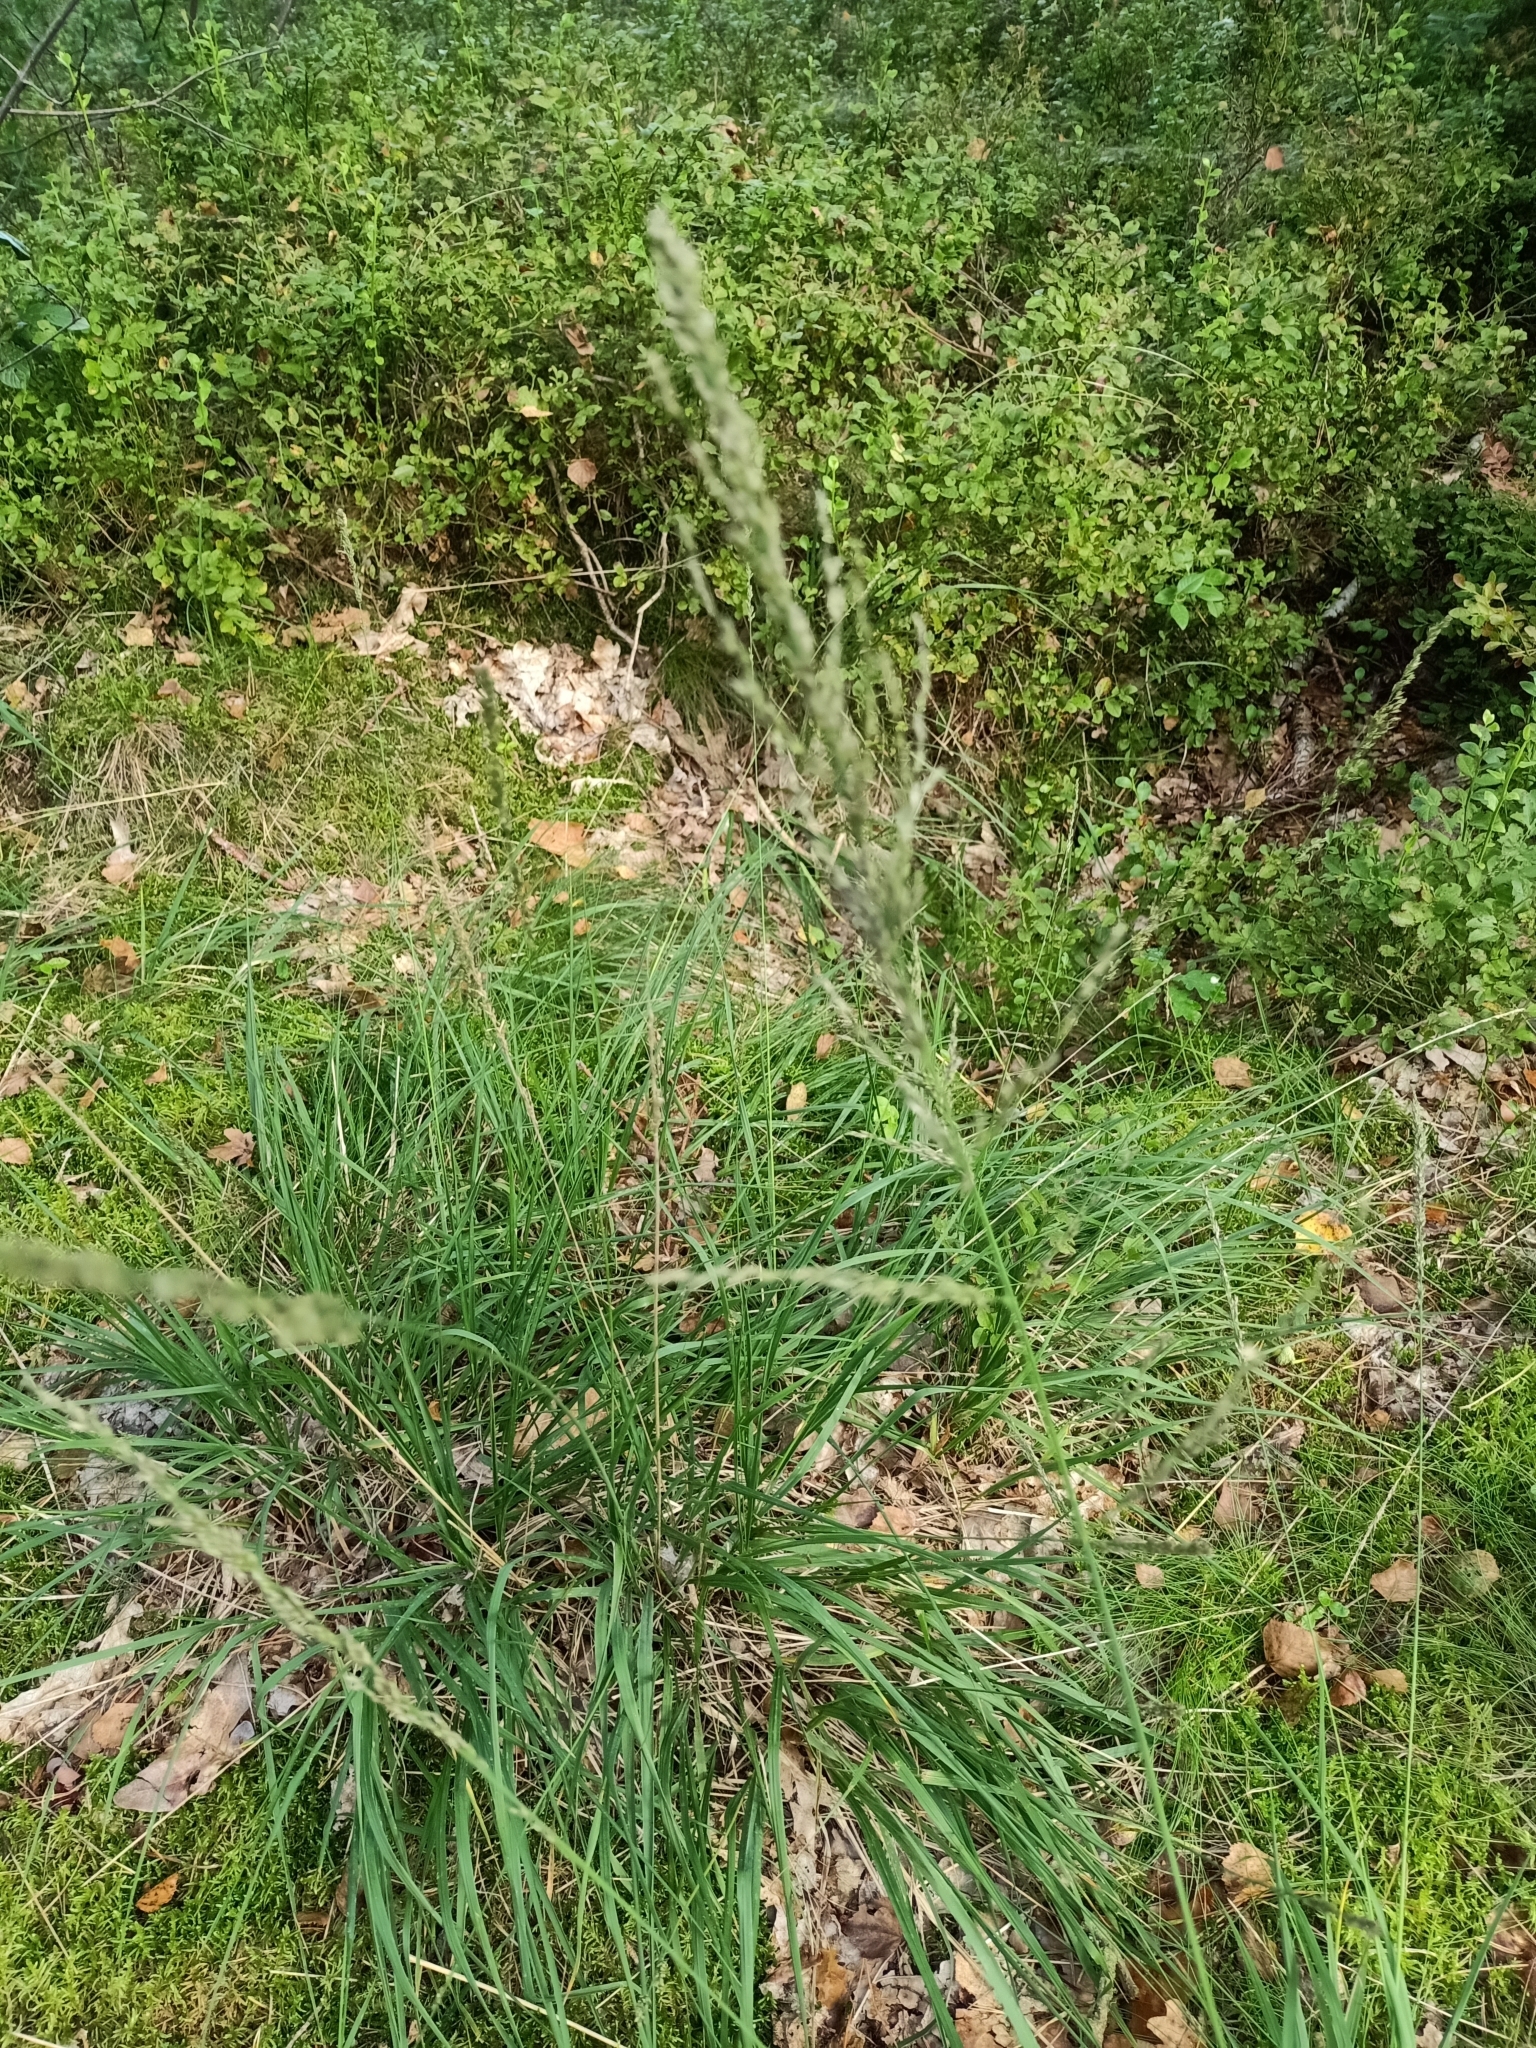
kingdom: Plantae
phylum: Tracheophyta
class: Liliopsida
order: Poales
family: Poaceae
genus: Molinia
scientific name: Molinia caerulea
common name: Purple moor-grass
